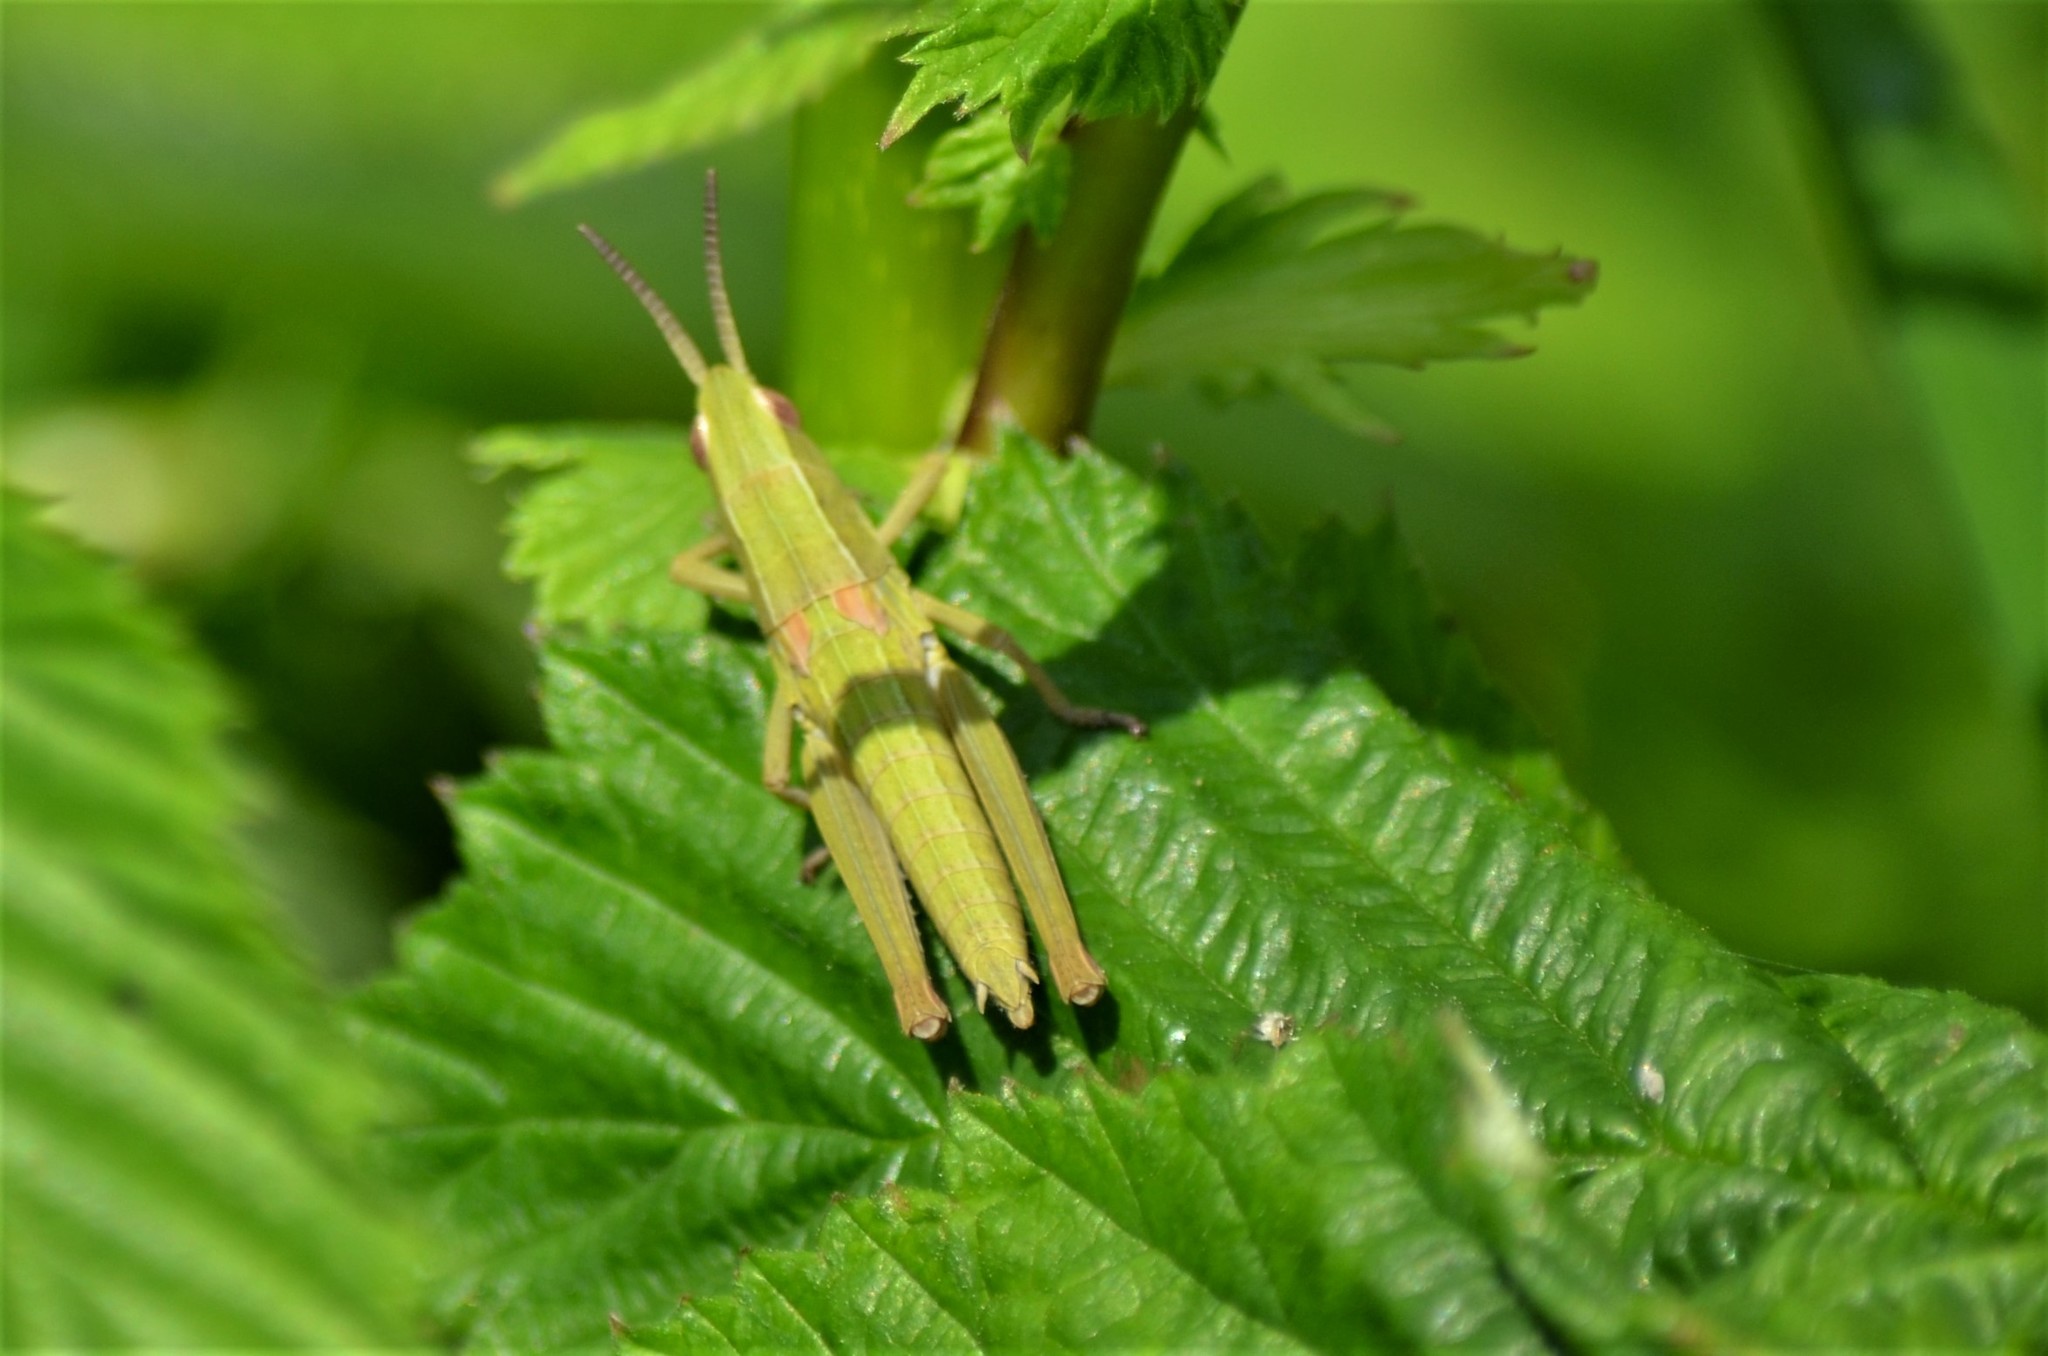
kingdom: Animalia
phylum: Arthropoda
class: Insecta
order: Orthoptera
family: Acrididae
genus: Euthystira
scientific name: Euthystira brachyptera
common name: Small gold grasshopper
